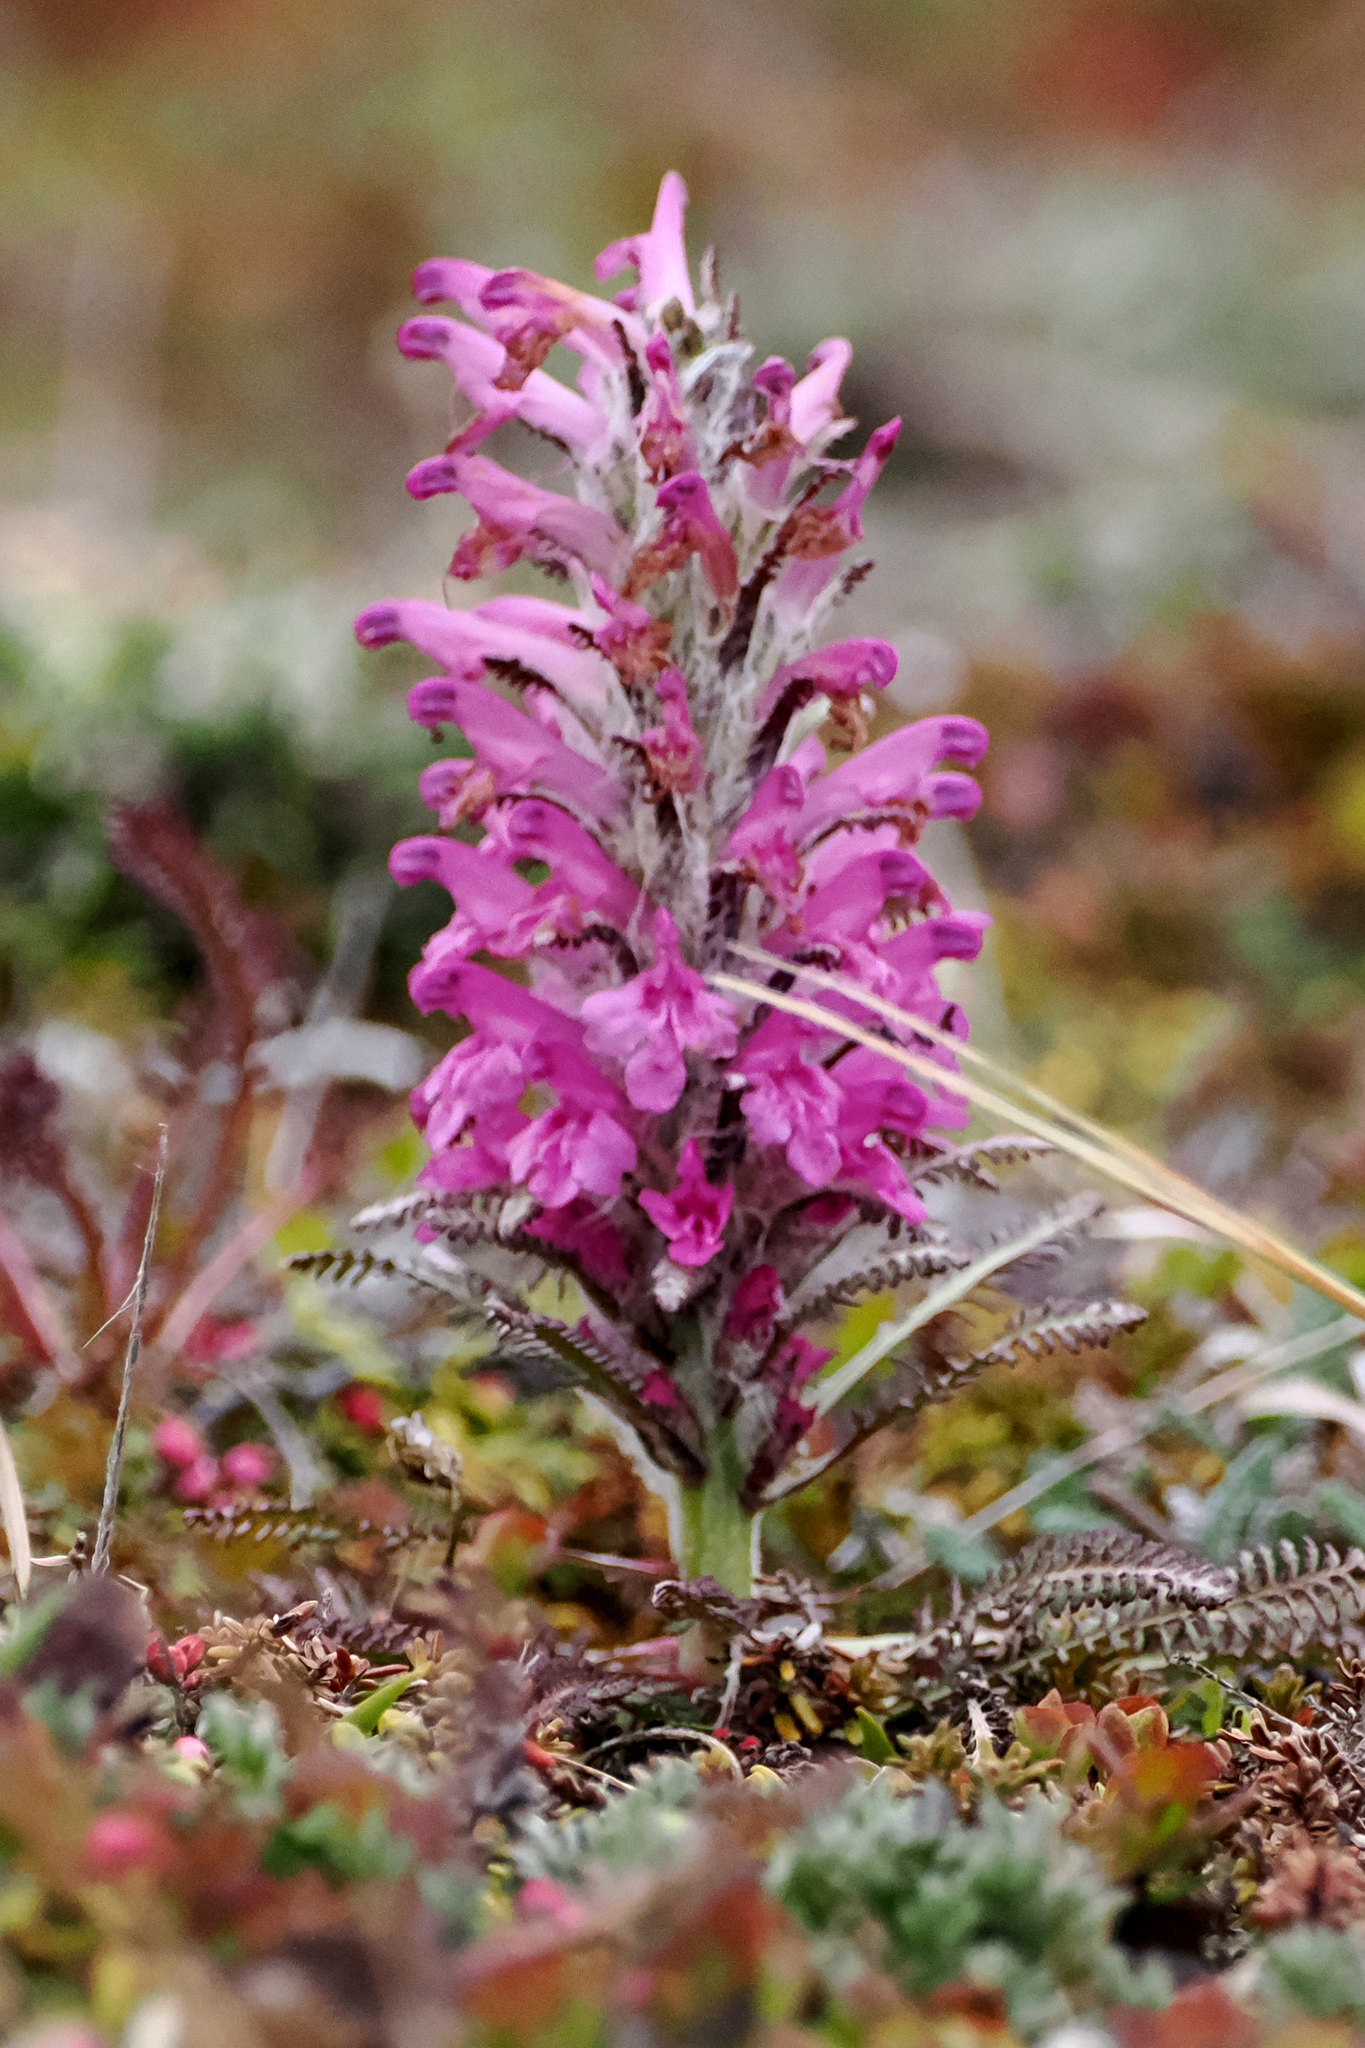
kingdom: Plantae
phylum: Tracheophyta
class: Magnoliopsida
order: Lamiales
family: Orobanchaceae
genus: Pedicularis
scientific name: Pedicularis lanata
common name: Woolly lousewort
